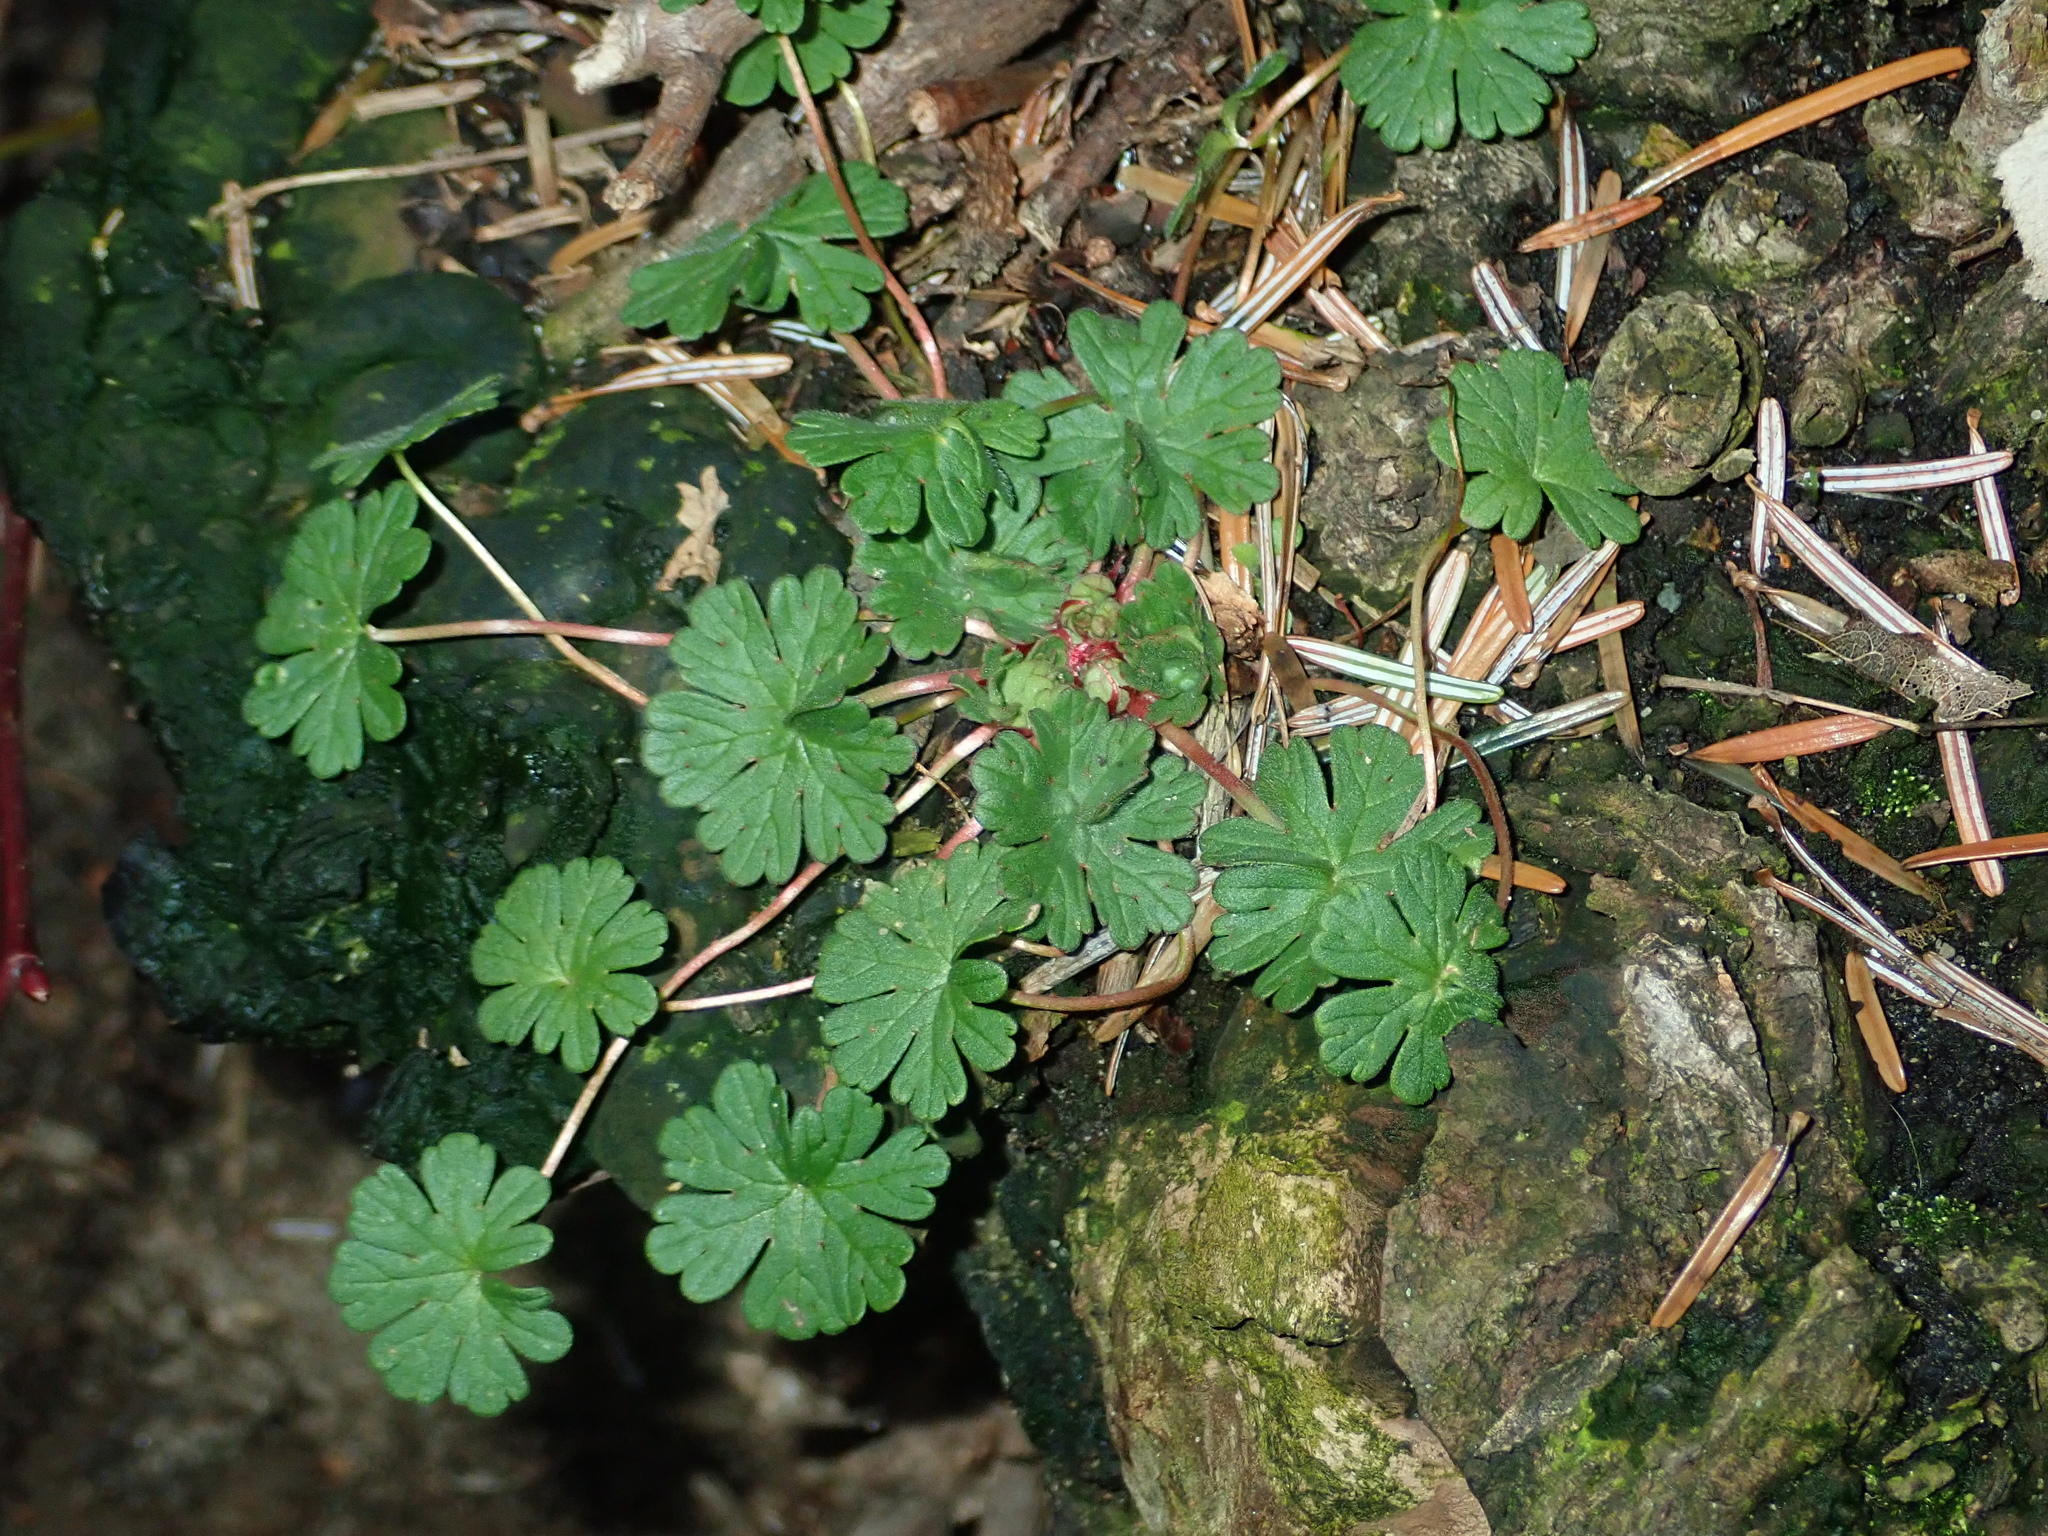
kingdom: Plantae
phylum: Tracheophyta
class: Magnoliopsida
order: Geraniales
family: Geraniaceae
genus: Geranium
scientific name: Geranium molle
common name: Dove's-foot crane's-bill
